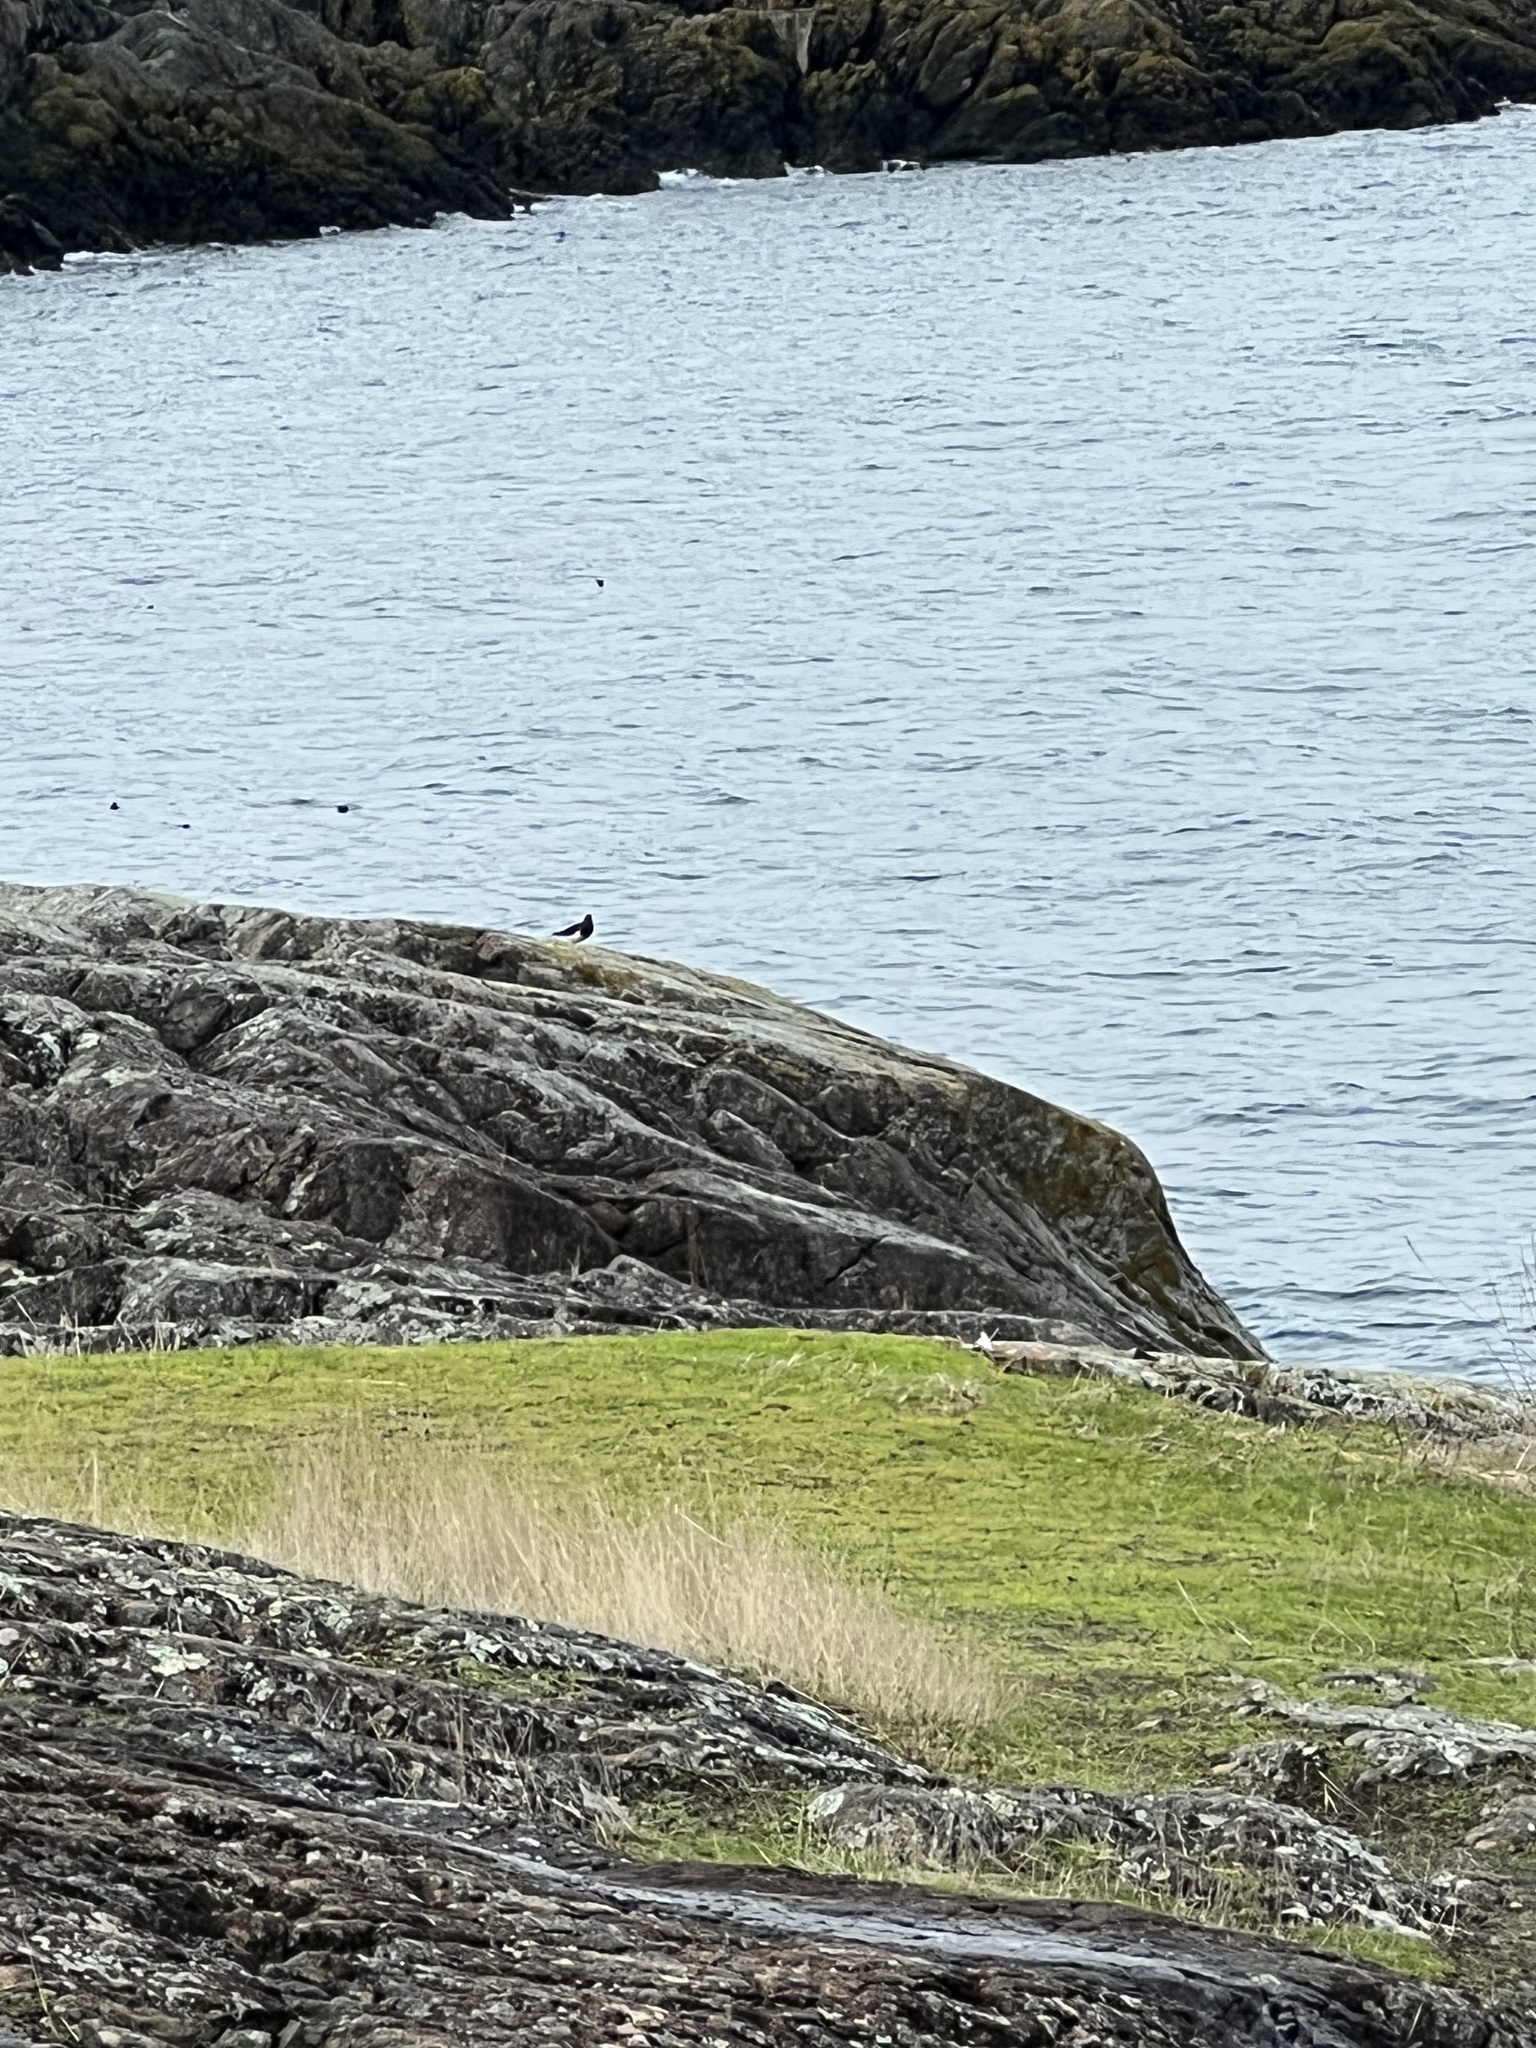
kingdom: Animalia
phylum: Chordata
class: Aves
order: Charadriiformes
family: Scolopacidae
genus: Arenaria
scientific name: Arenaria melanocephala
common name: Black turnstone
